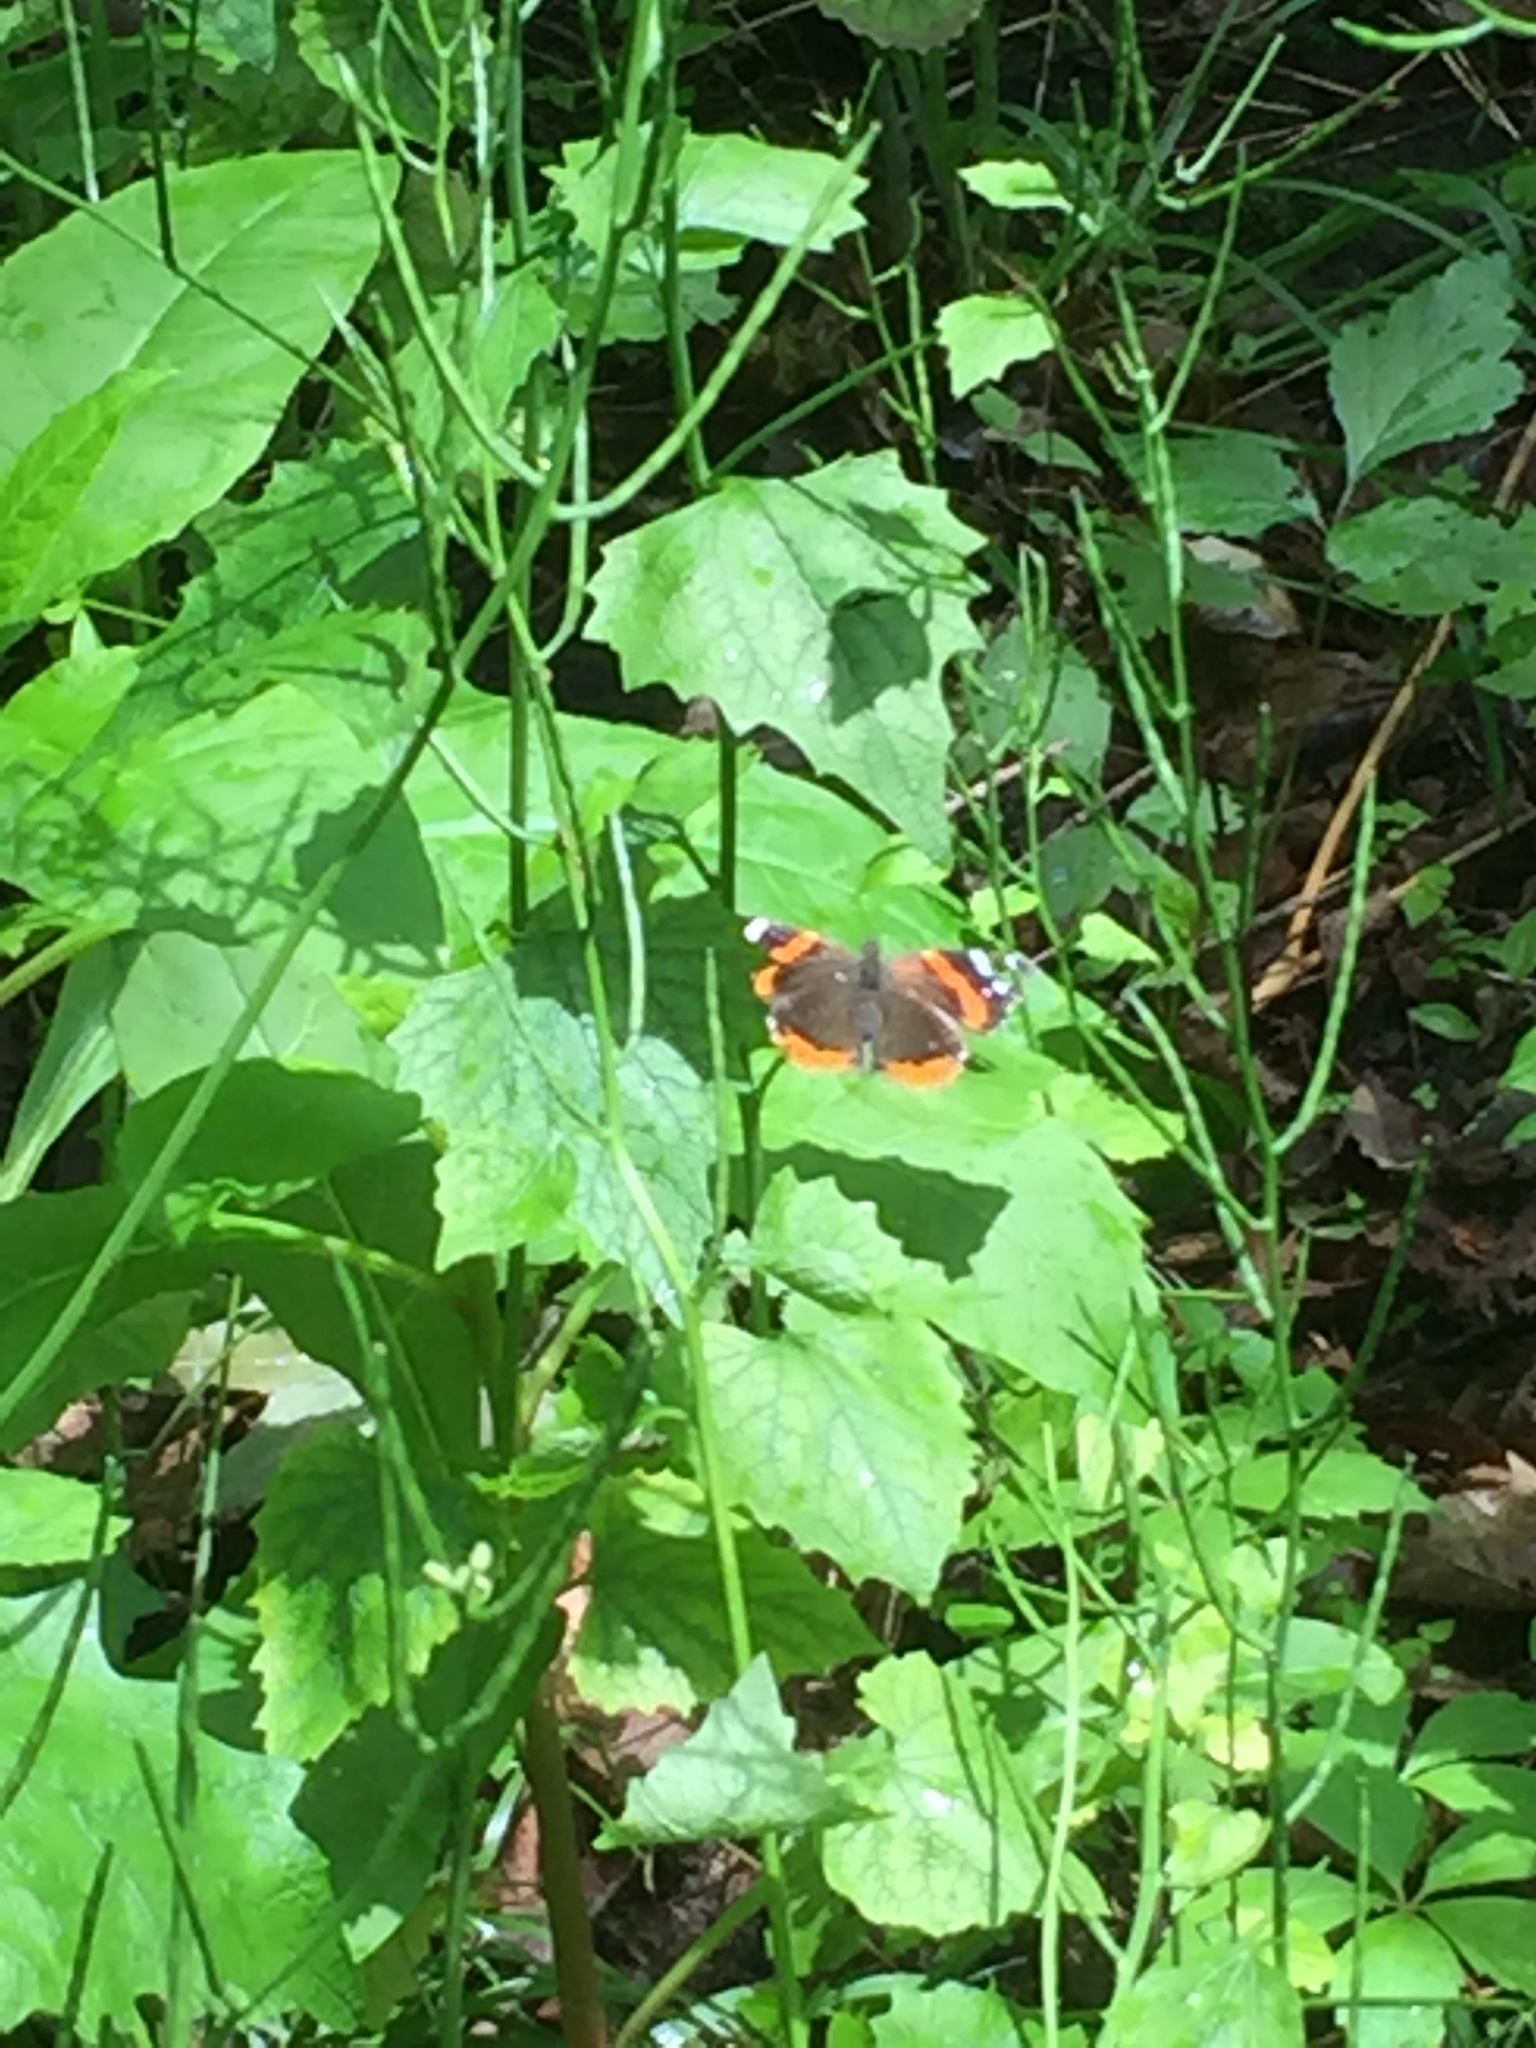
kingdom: Animalia
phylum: Arthropoda
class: Insecta
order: Lepidoptera
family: Nymphalidae
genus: Vanessa
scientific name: Vanessa atalanta
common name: Red admiral
